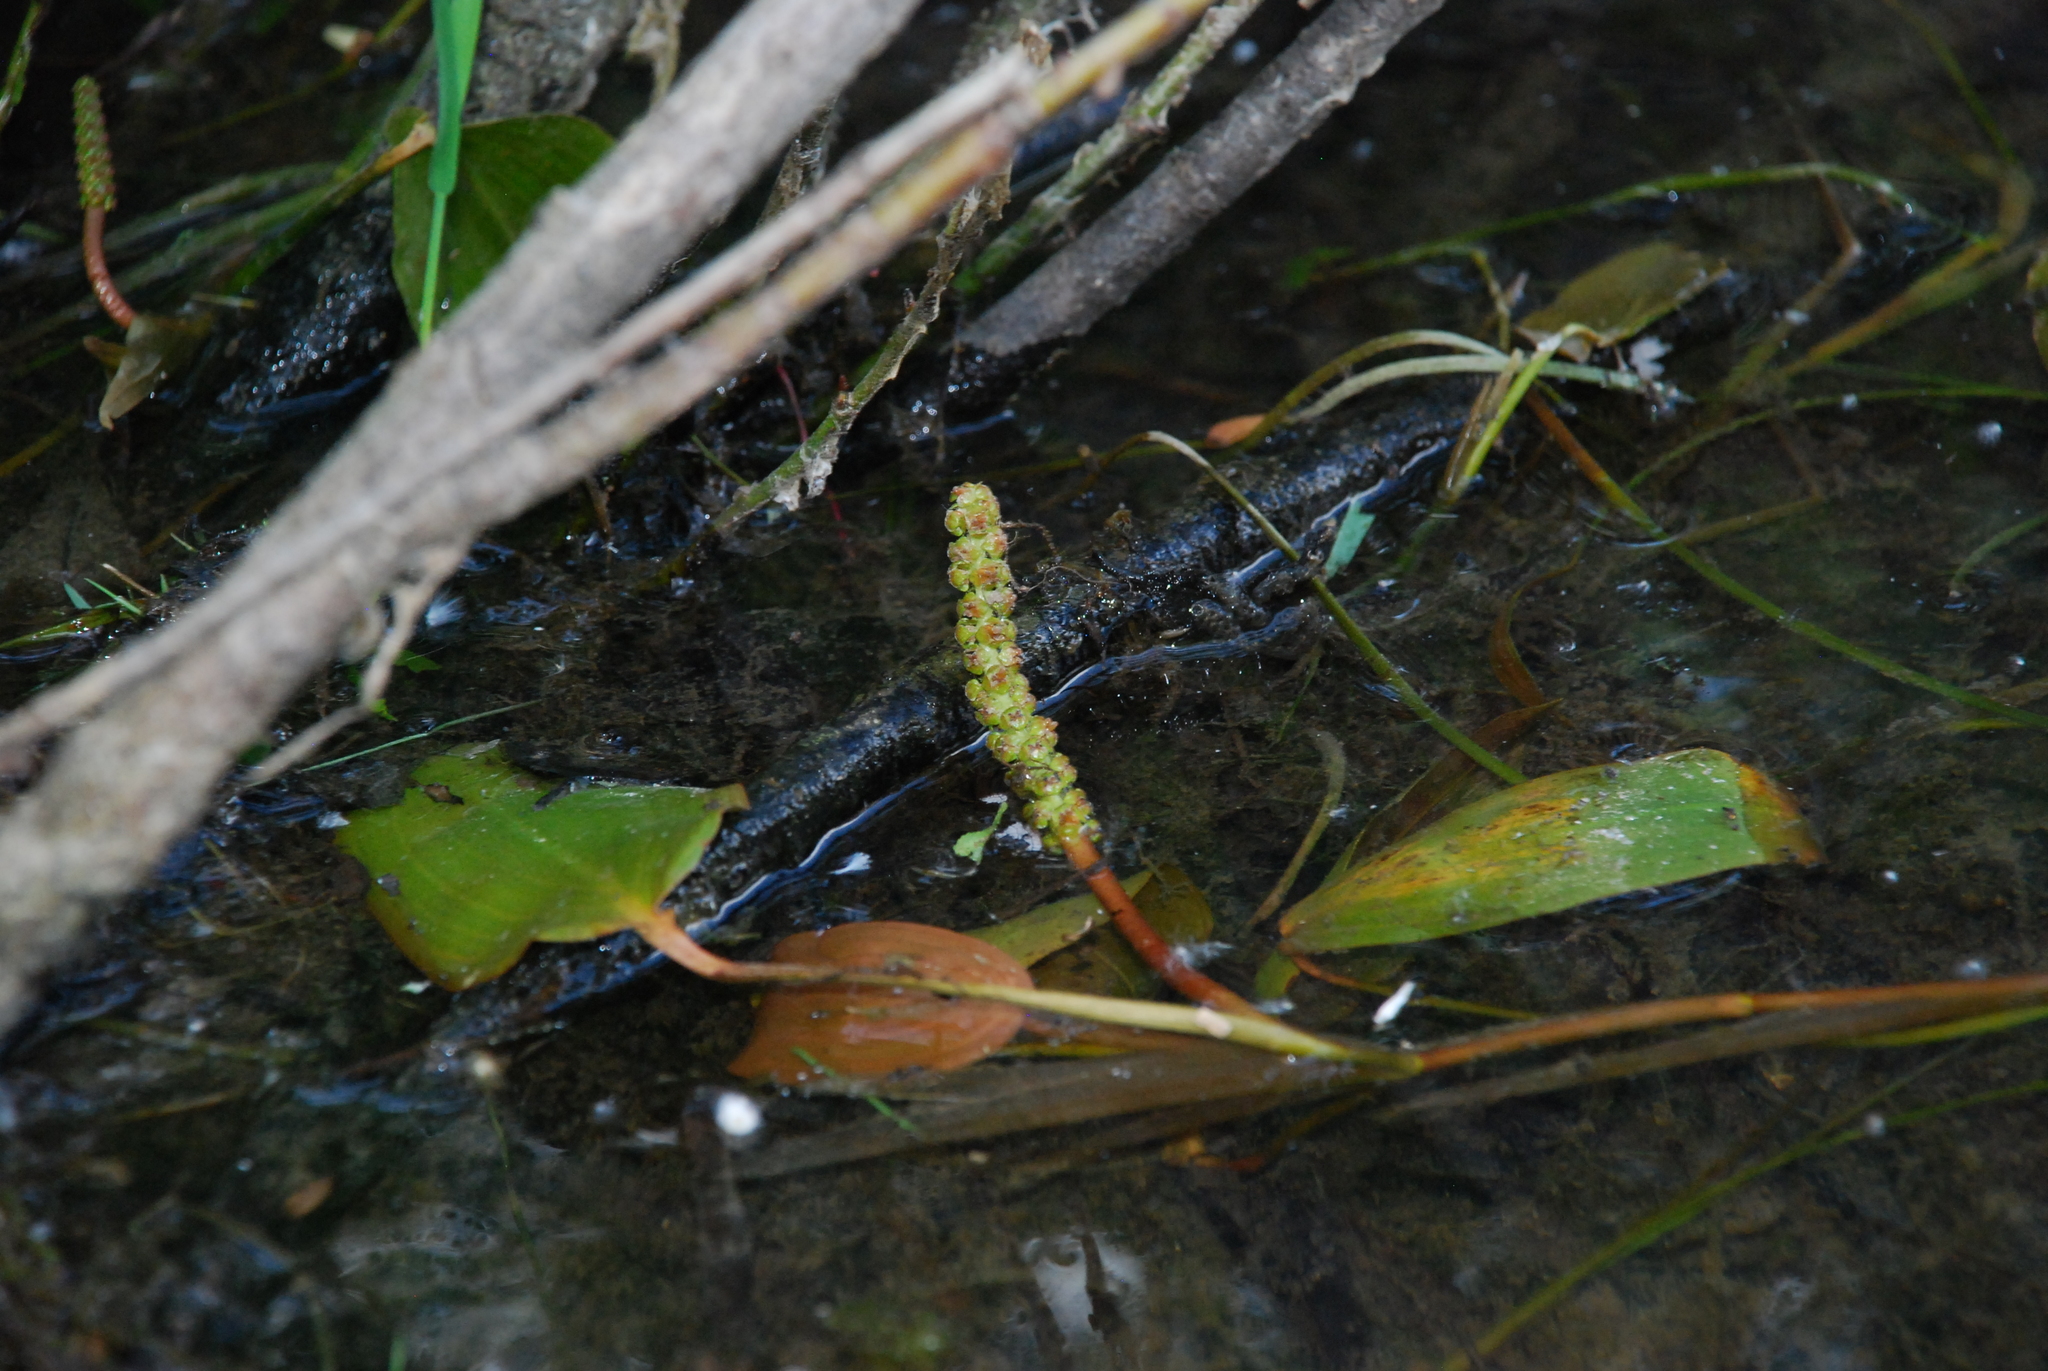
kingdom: Plantae
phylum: Tracheophyta
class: Liliopsida
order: Alismatales
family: Potamogetonaceae
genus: Potamogeton
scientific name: Potamogeton natans
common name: Broad-leaved pondweed
